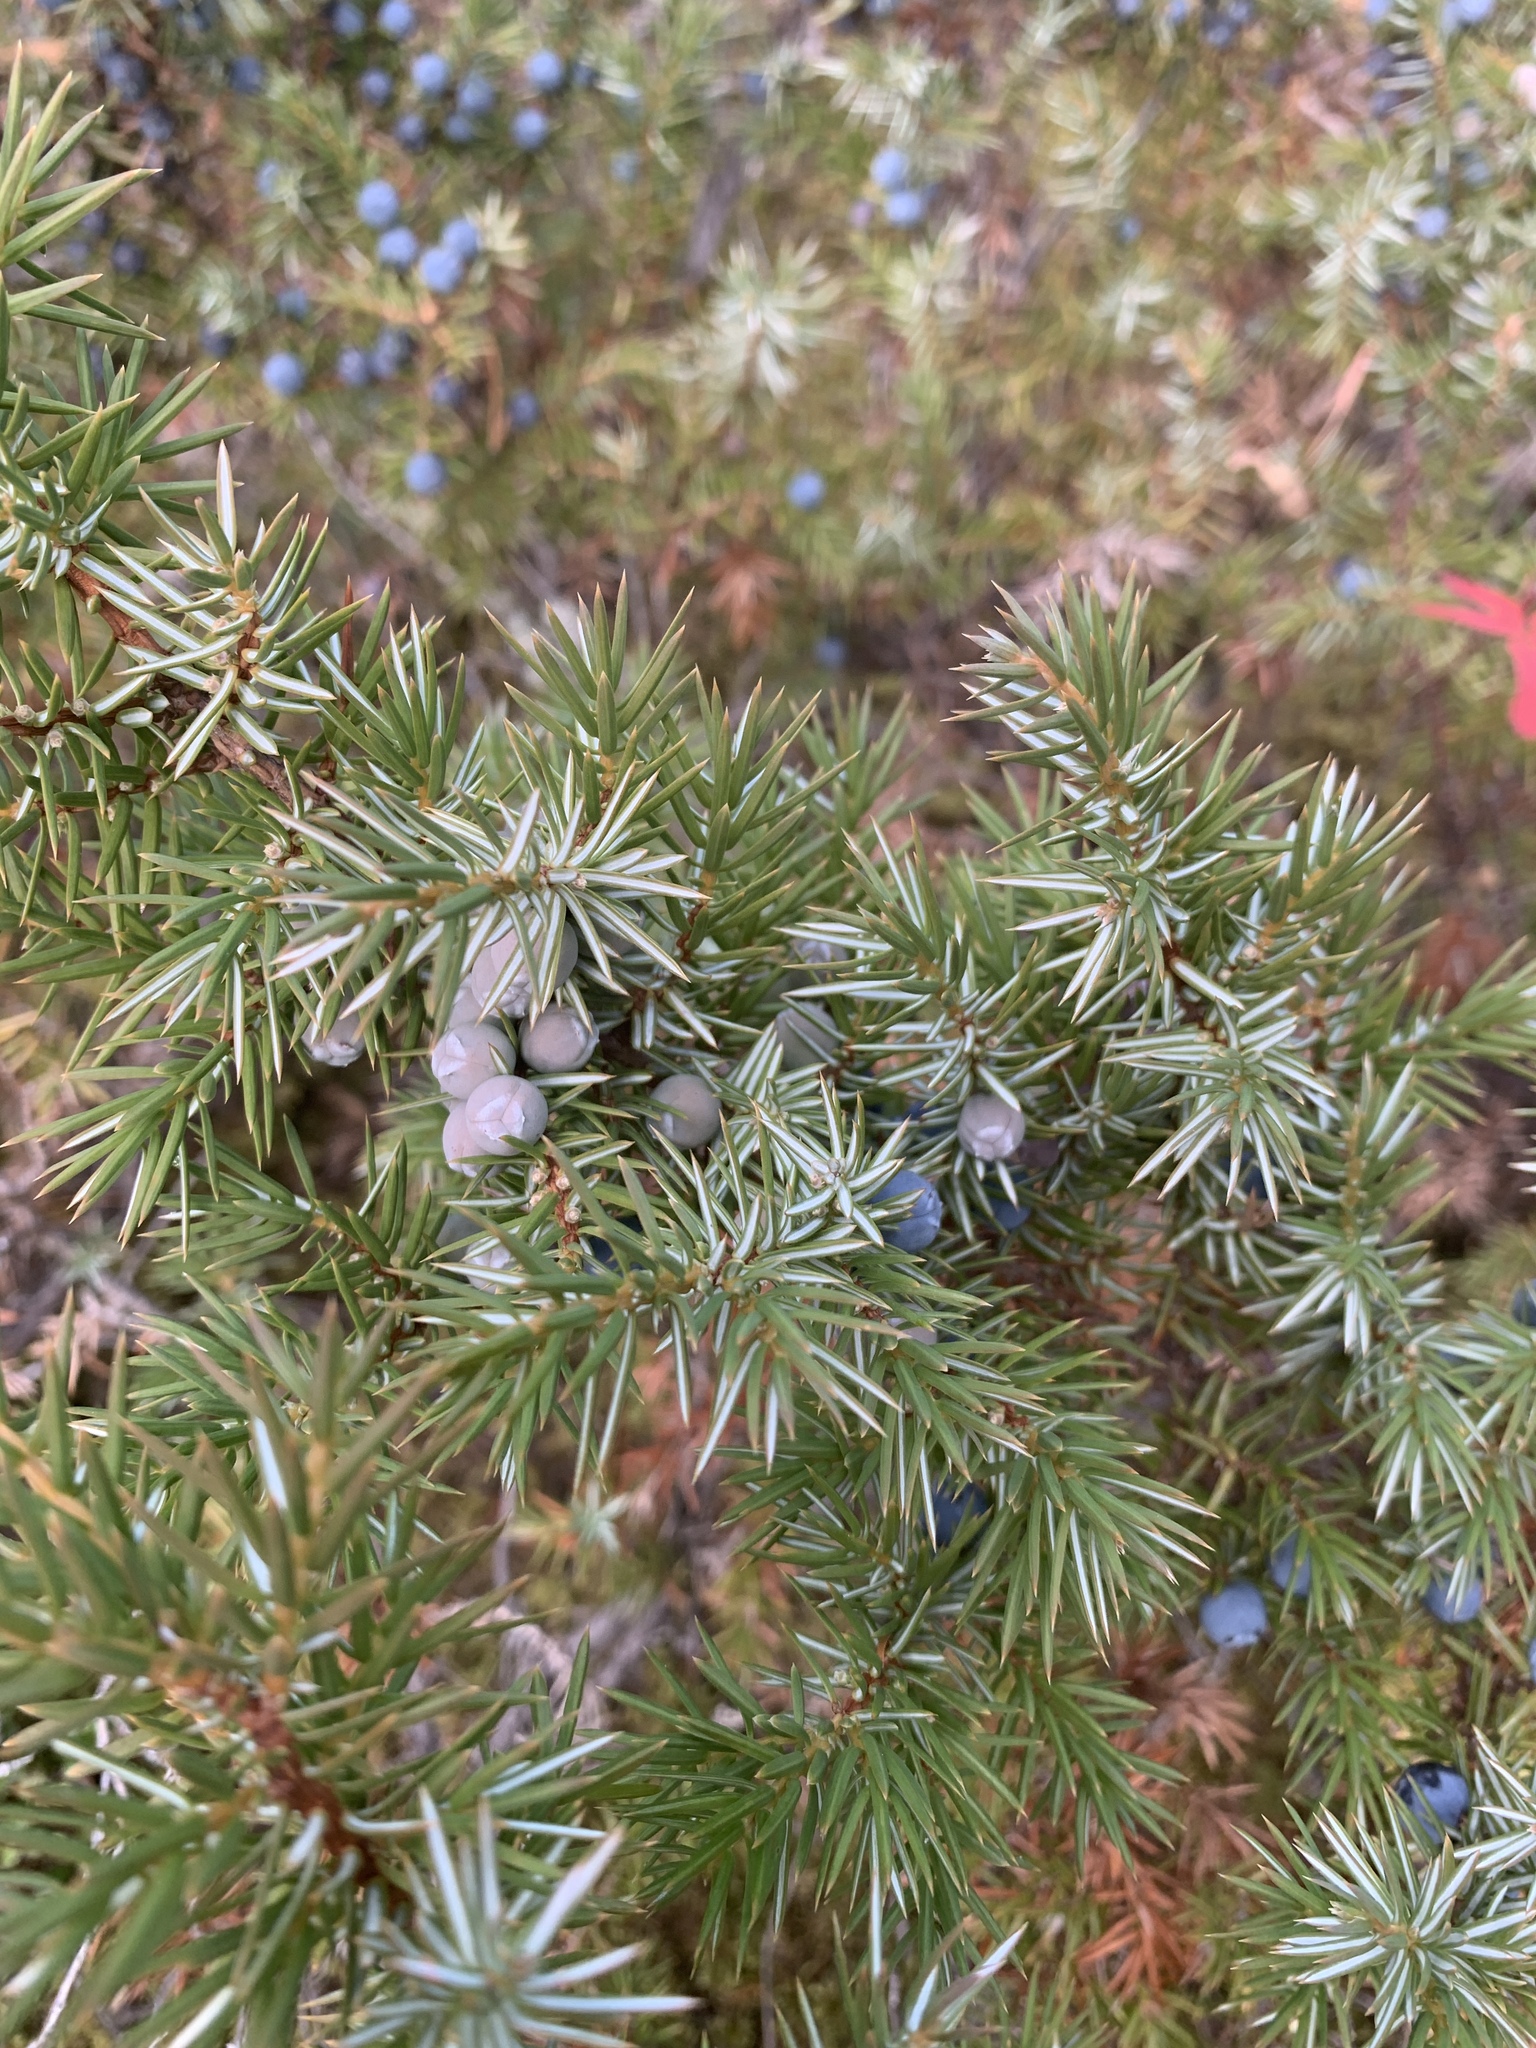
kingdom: Plantae
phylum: Tracheophyta
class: Pinopsida
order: Pinales
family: Cupressaceae
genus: Juniperus
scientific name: Juniperus communis
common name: Common juniper
